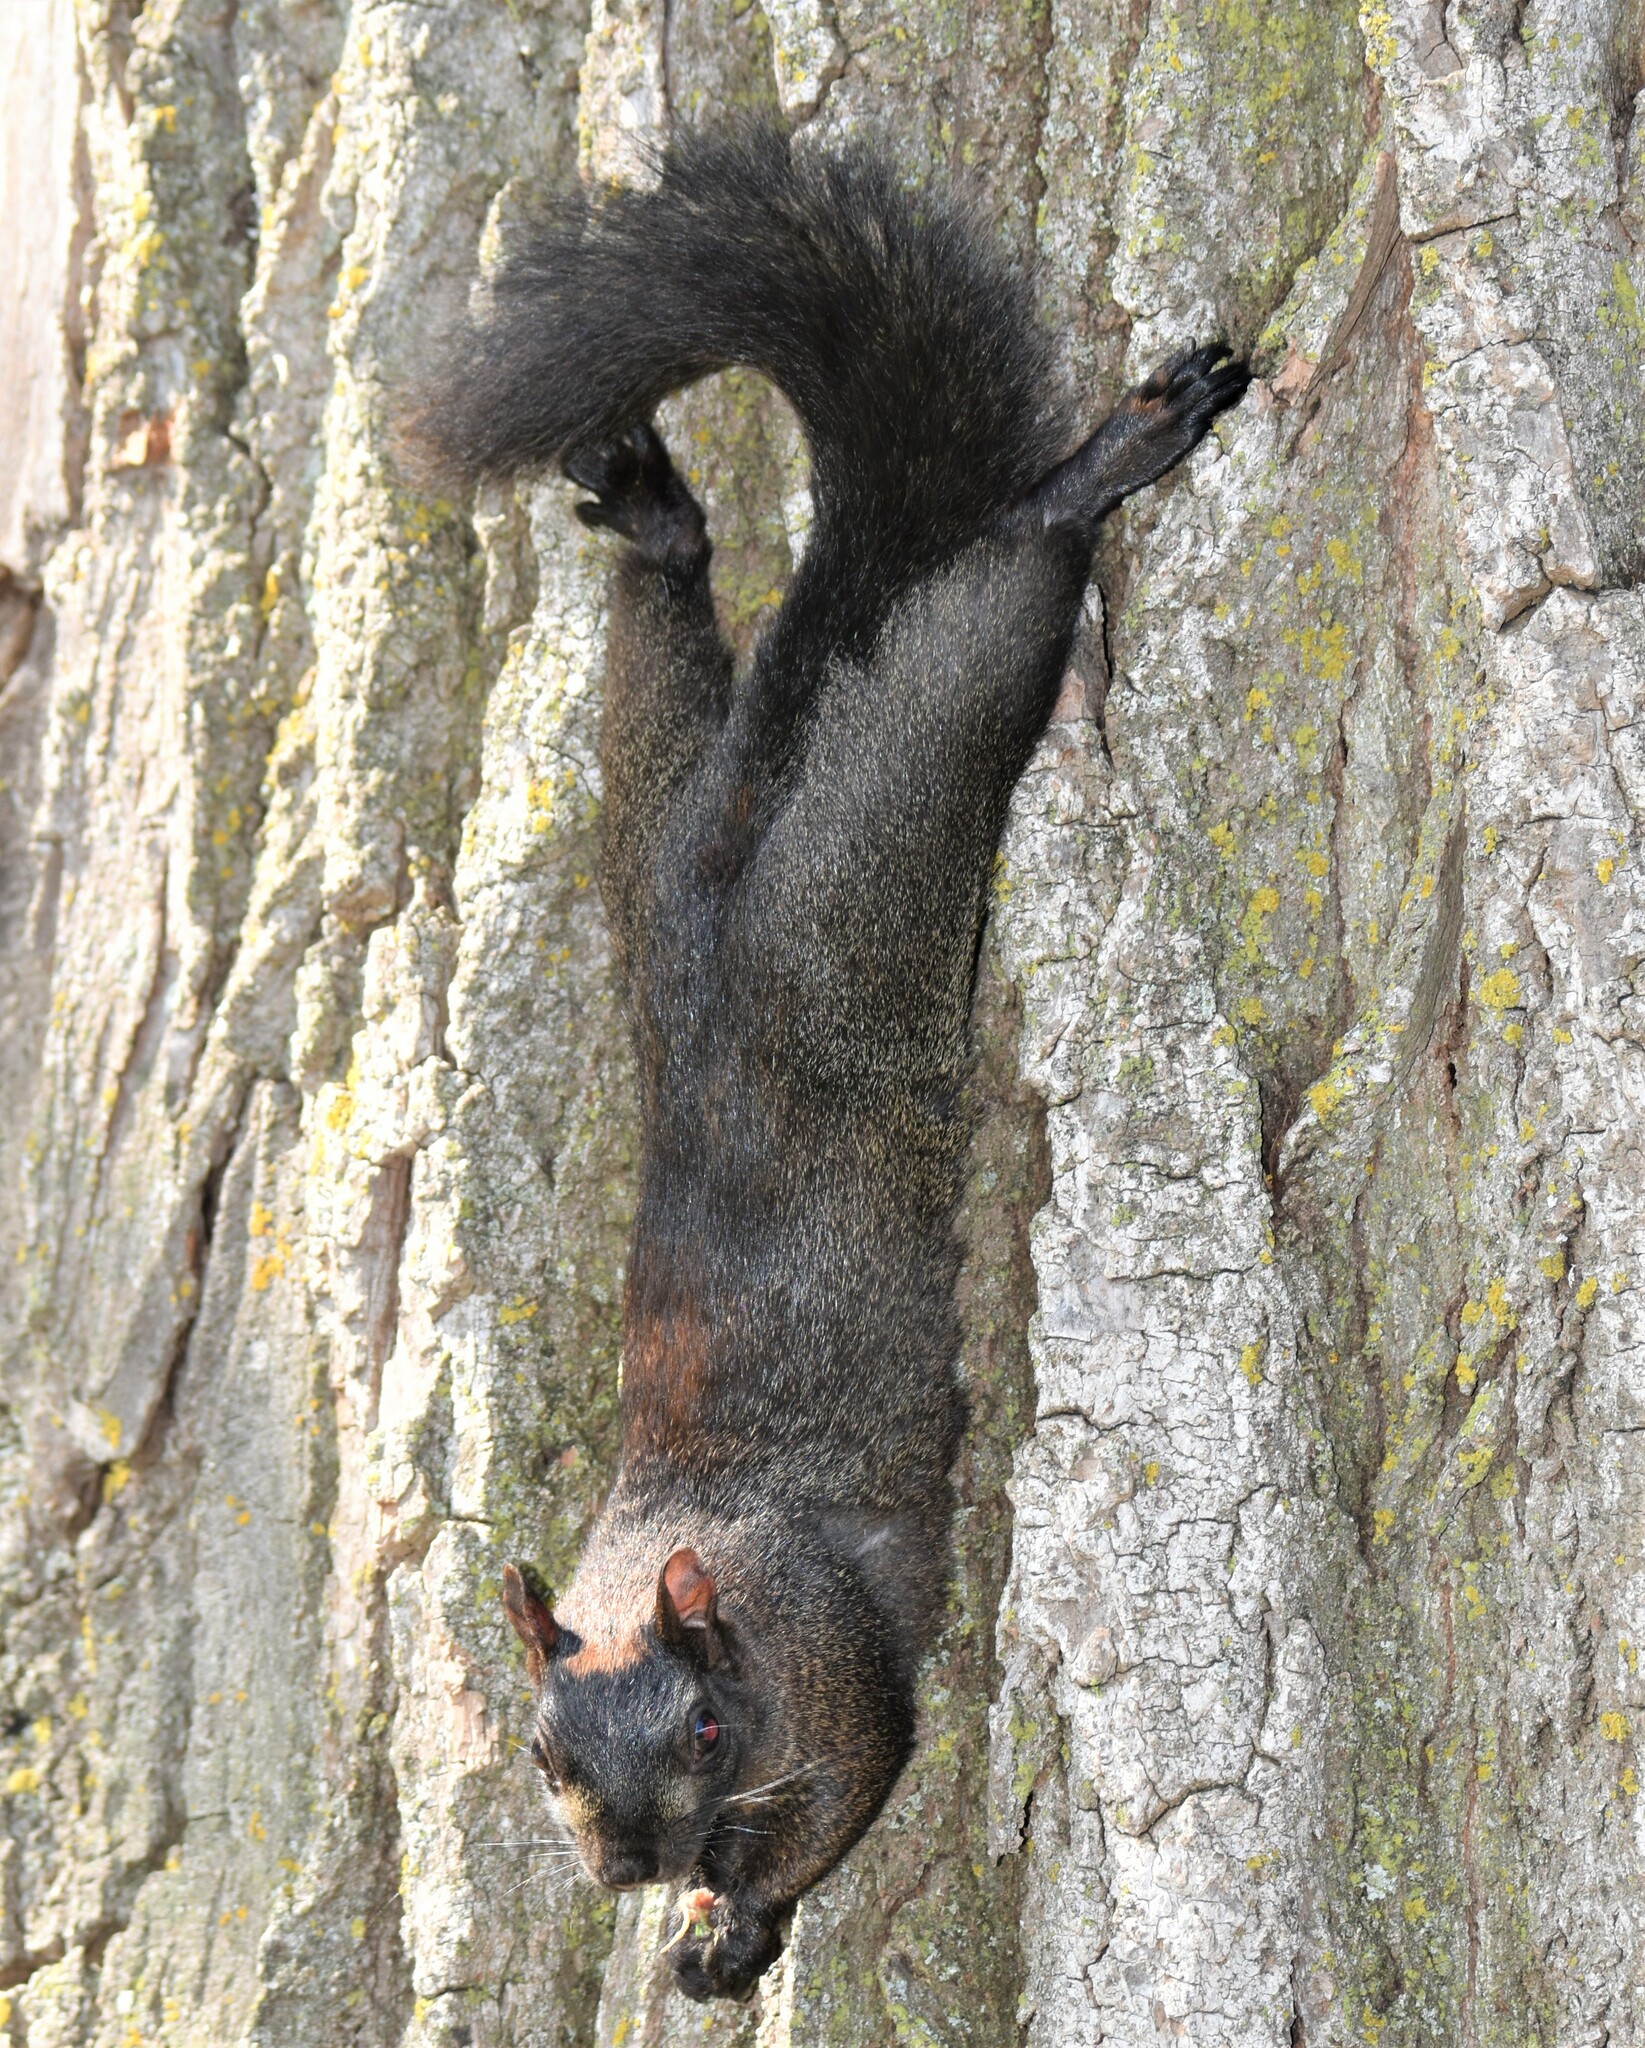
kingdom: Animalia
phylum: Chordata
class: Mammalia
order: Rodentia
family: Sciuridae
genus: Sciurus
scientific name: Sciurus carolinensis
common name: Eastern gray squirrel
